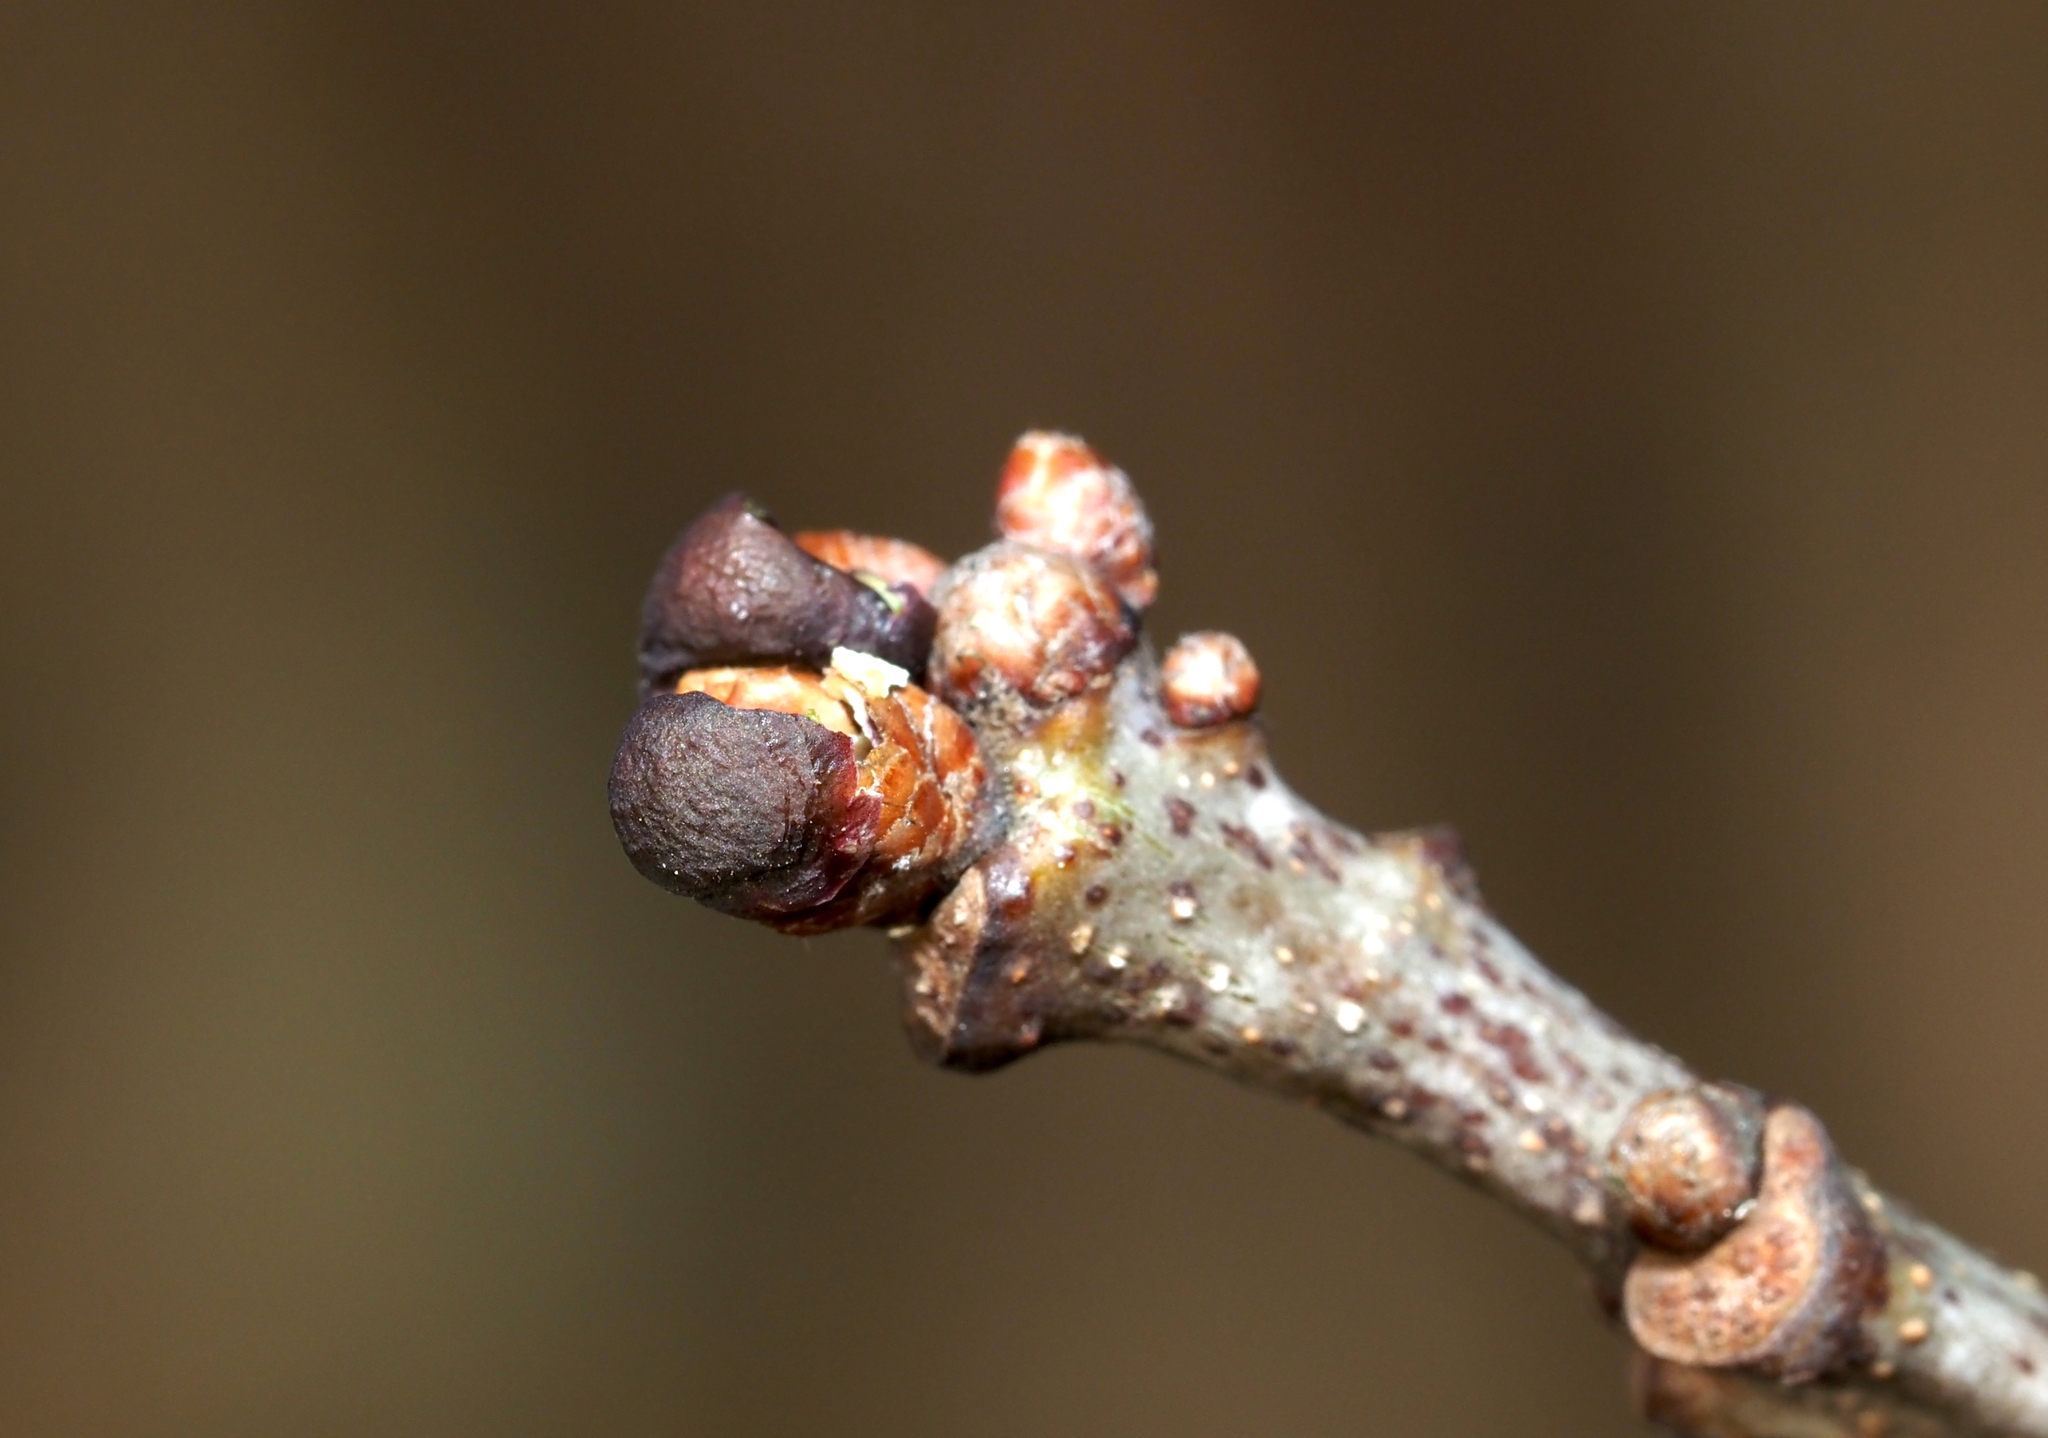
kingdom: Animalia
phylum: Arthropoda
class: Insecta
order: Hymenoptera
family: Cynipidae
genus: Neuroterus
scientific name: Neuroterus
